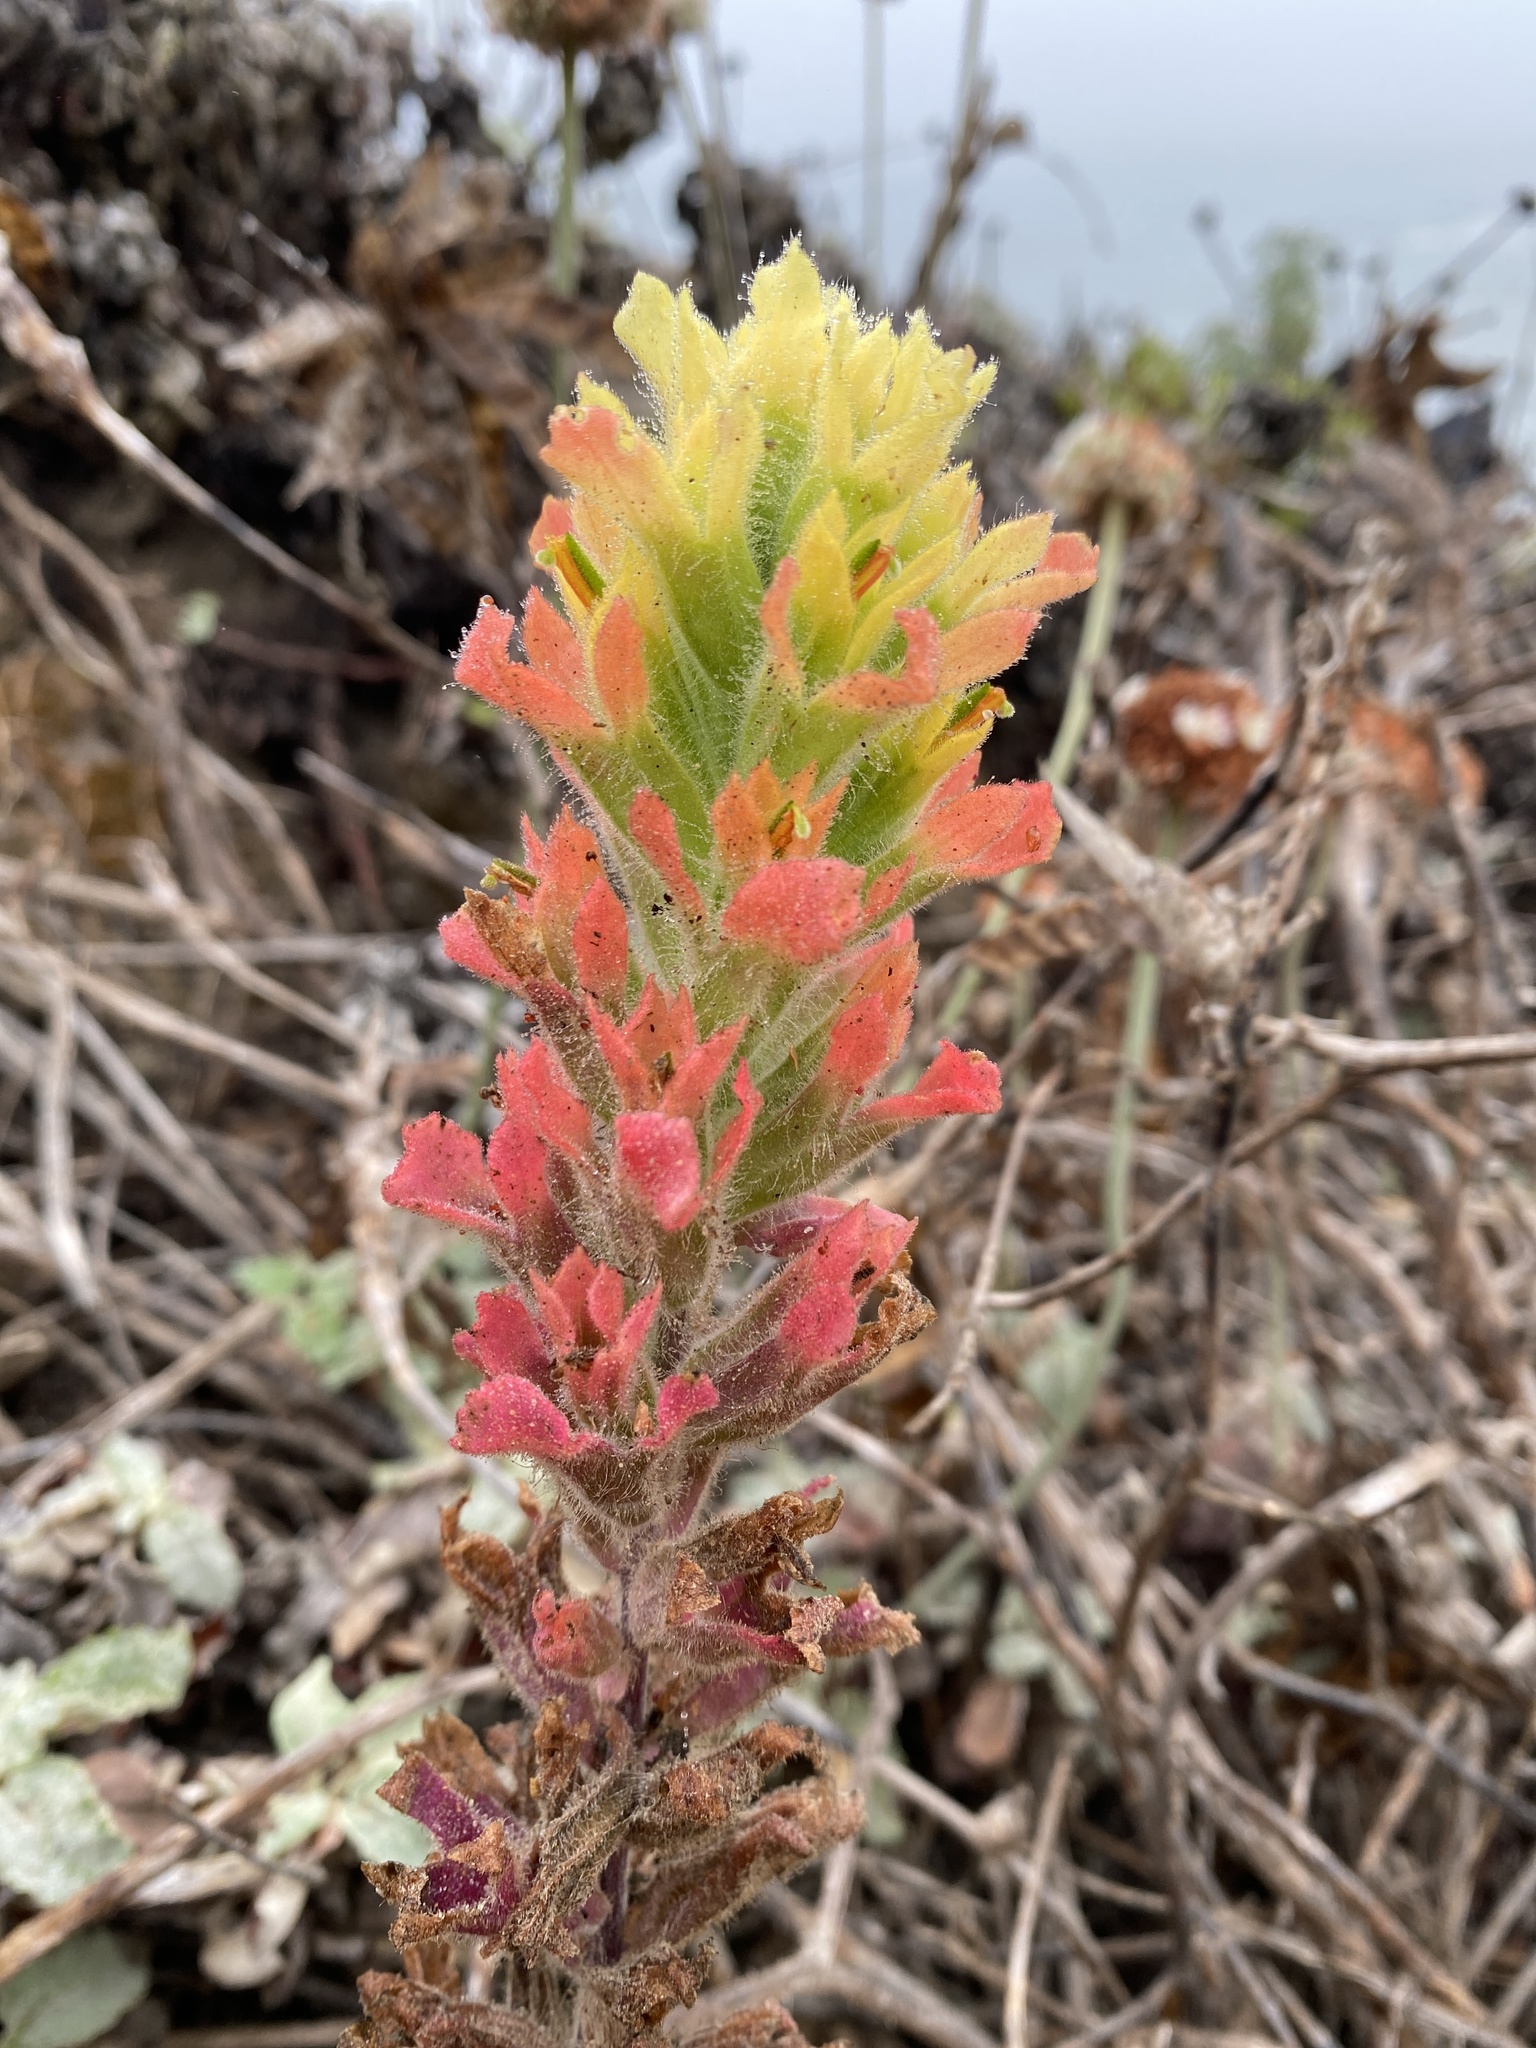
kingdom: Plantae
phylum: Tracheophyta
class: Magnoliopsida
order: Lamiales
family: Orobanchaceae
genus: Castilleja
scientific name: Castilleja wightii
